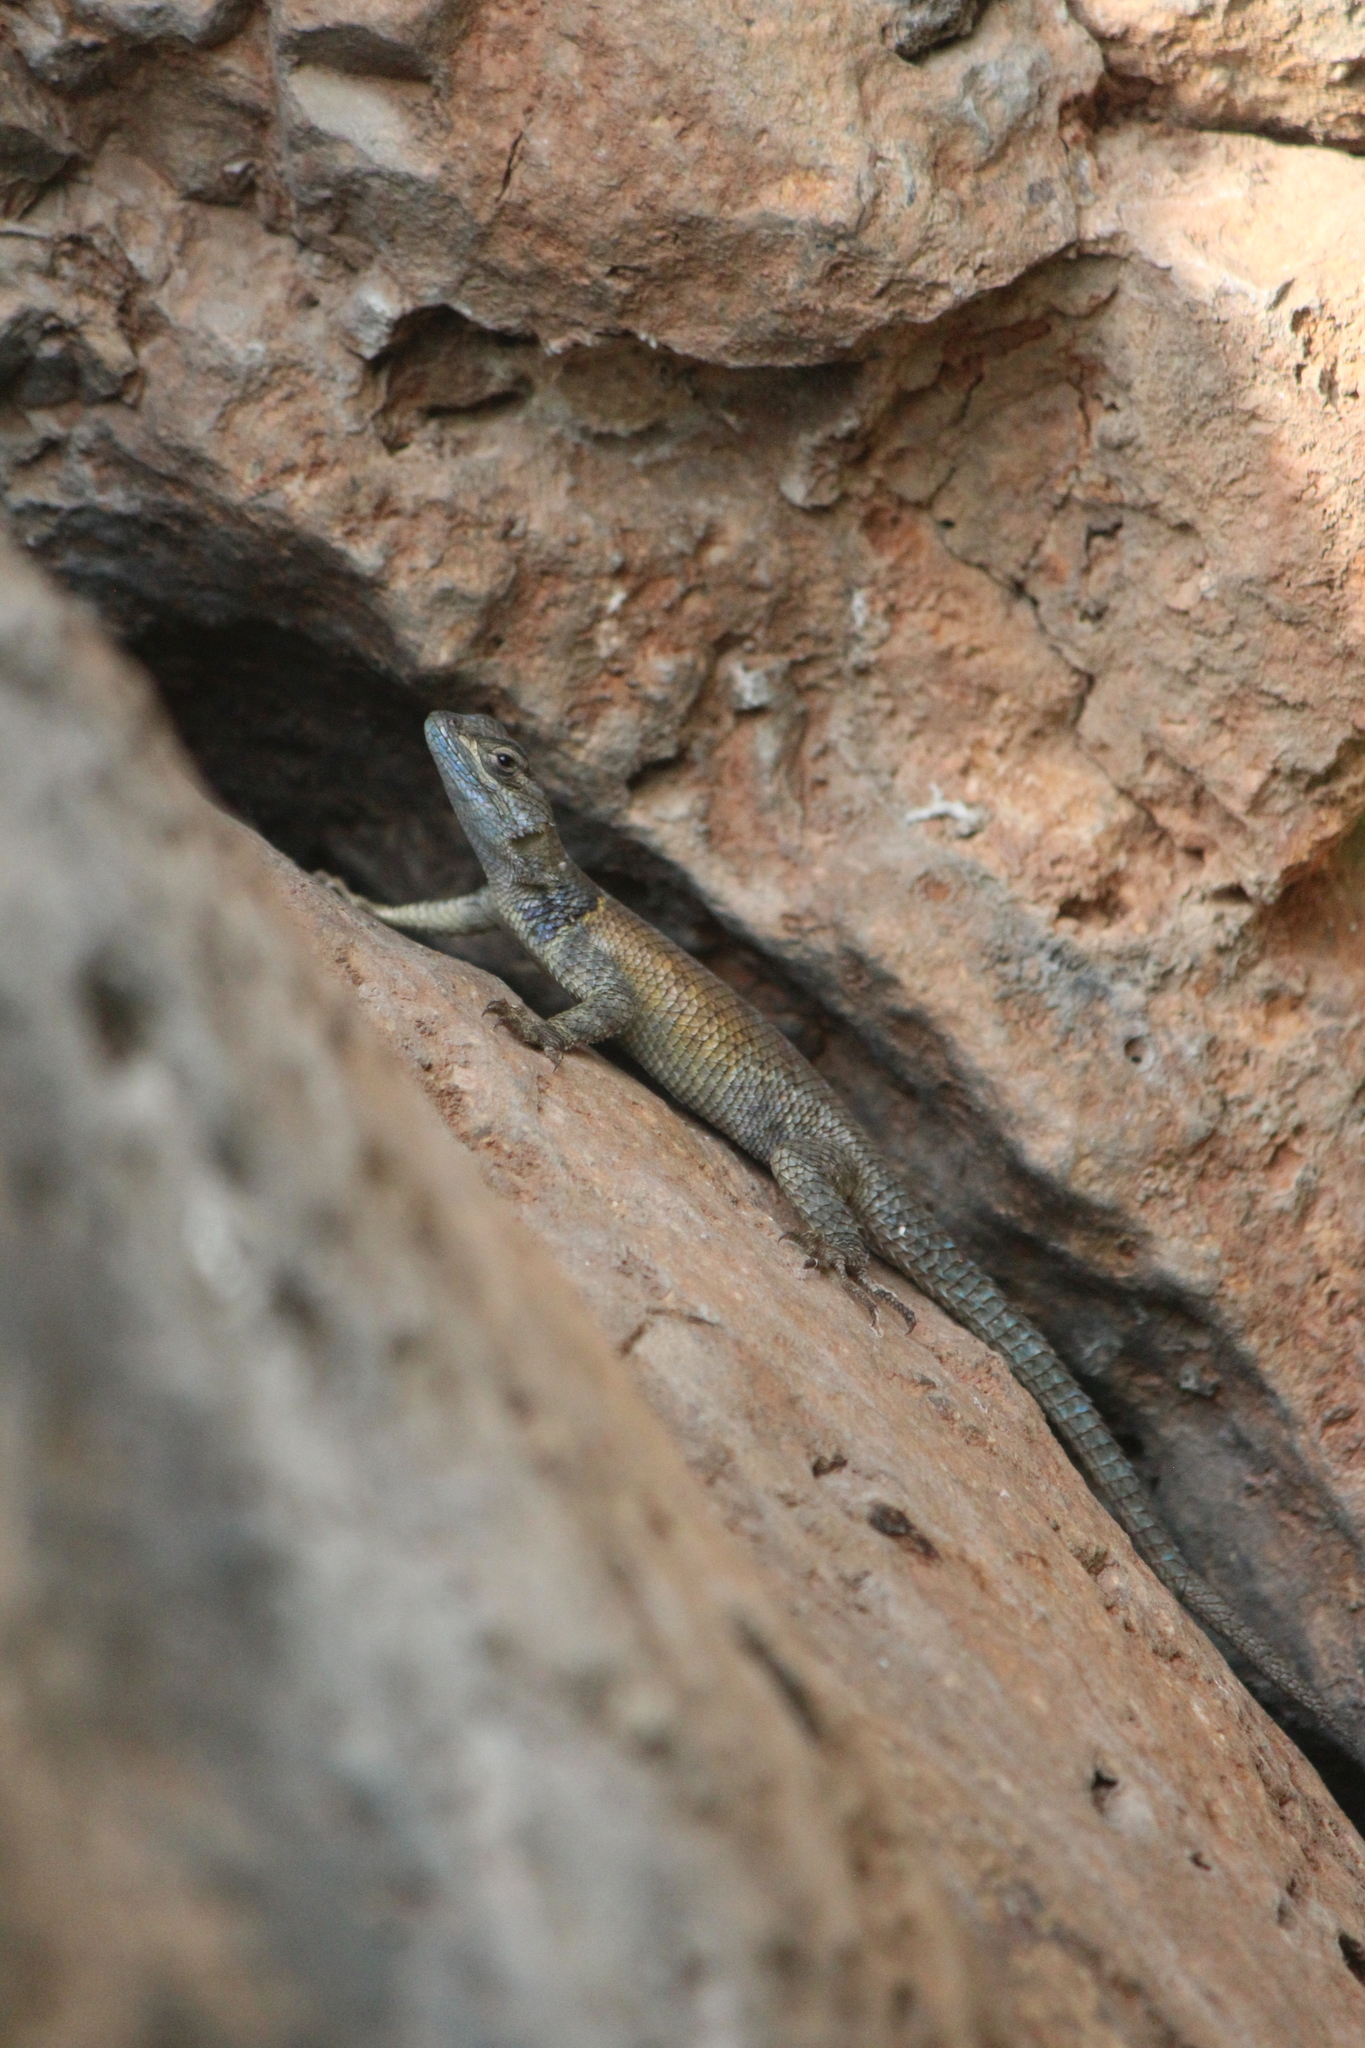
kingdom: Animalia
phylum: Chordata
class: Squamata
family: Phrynosomatidae
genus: Sceloporus
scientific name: Sceloporus minor
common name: Minor lizard
